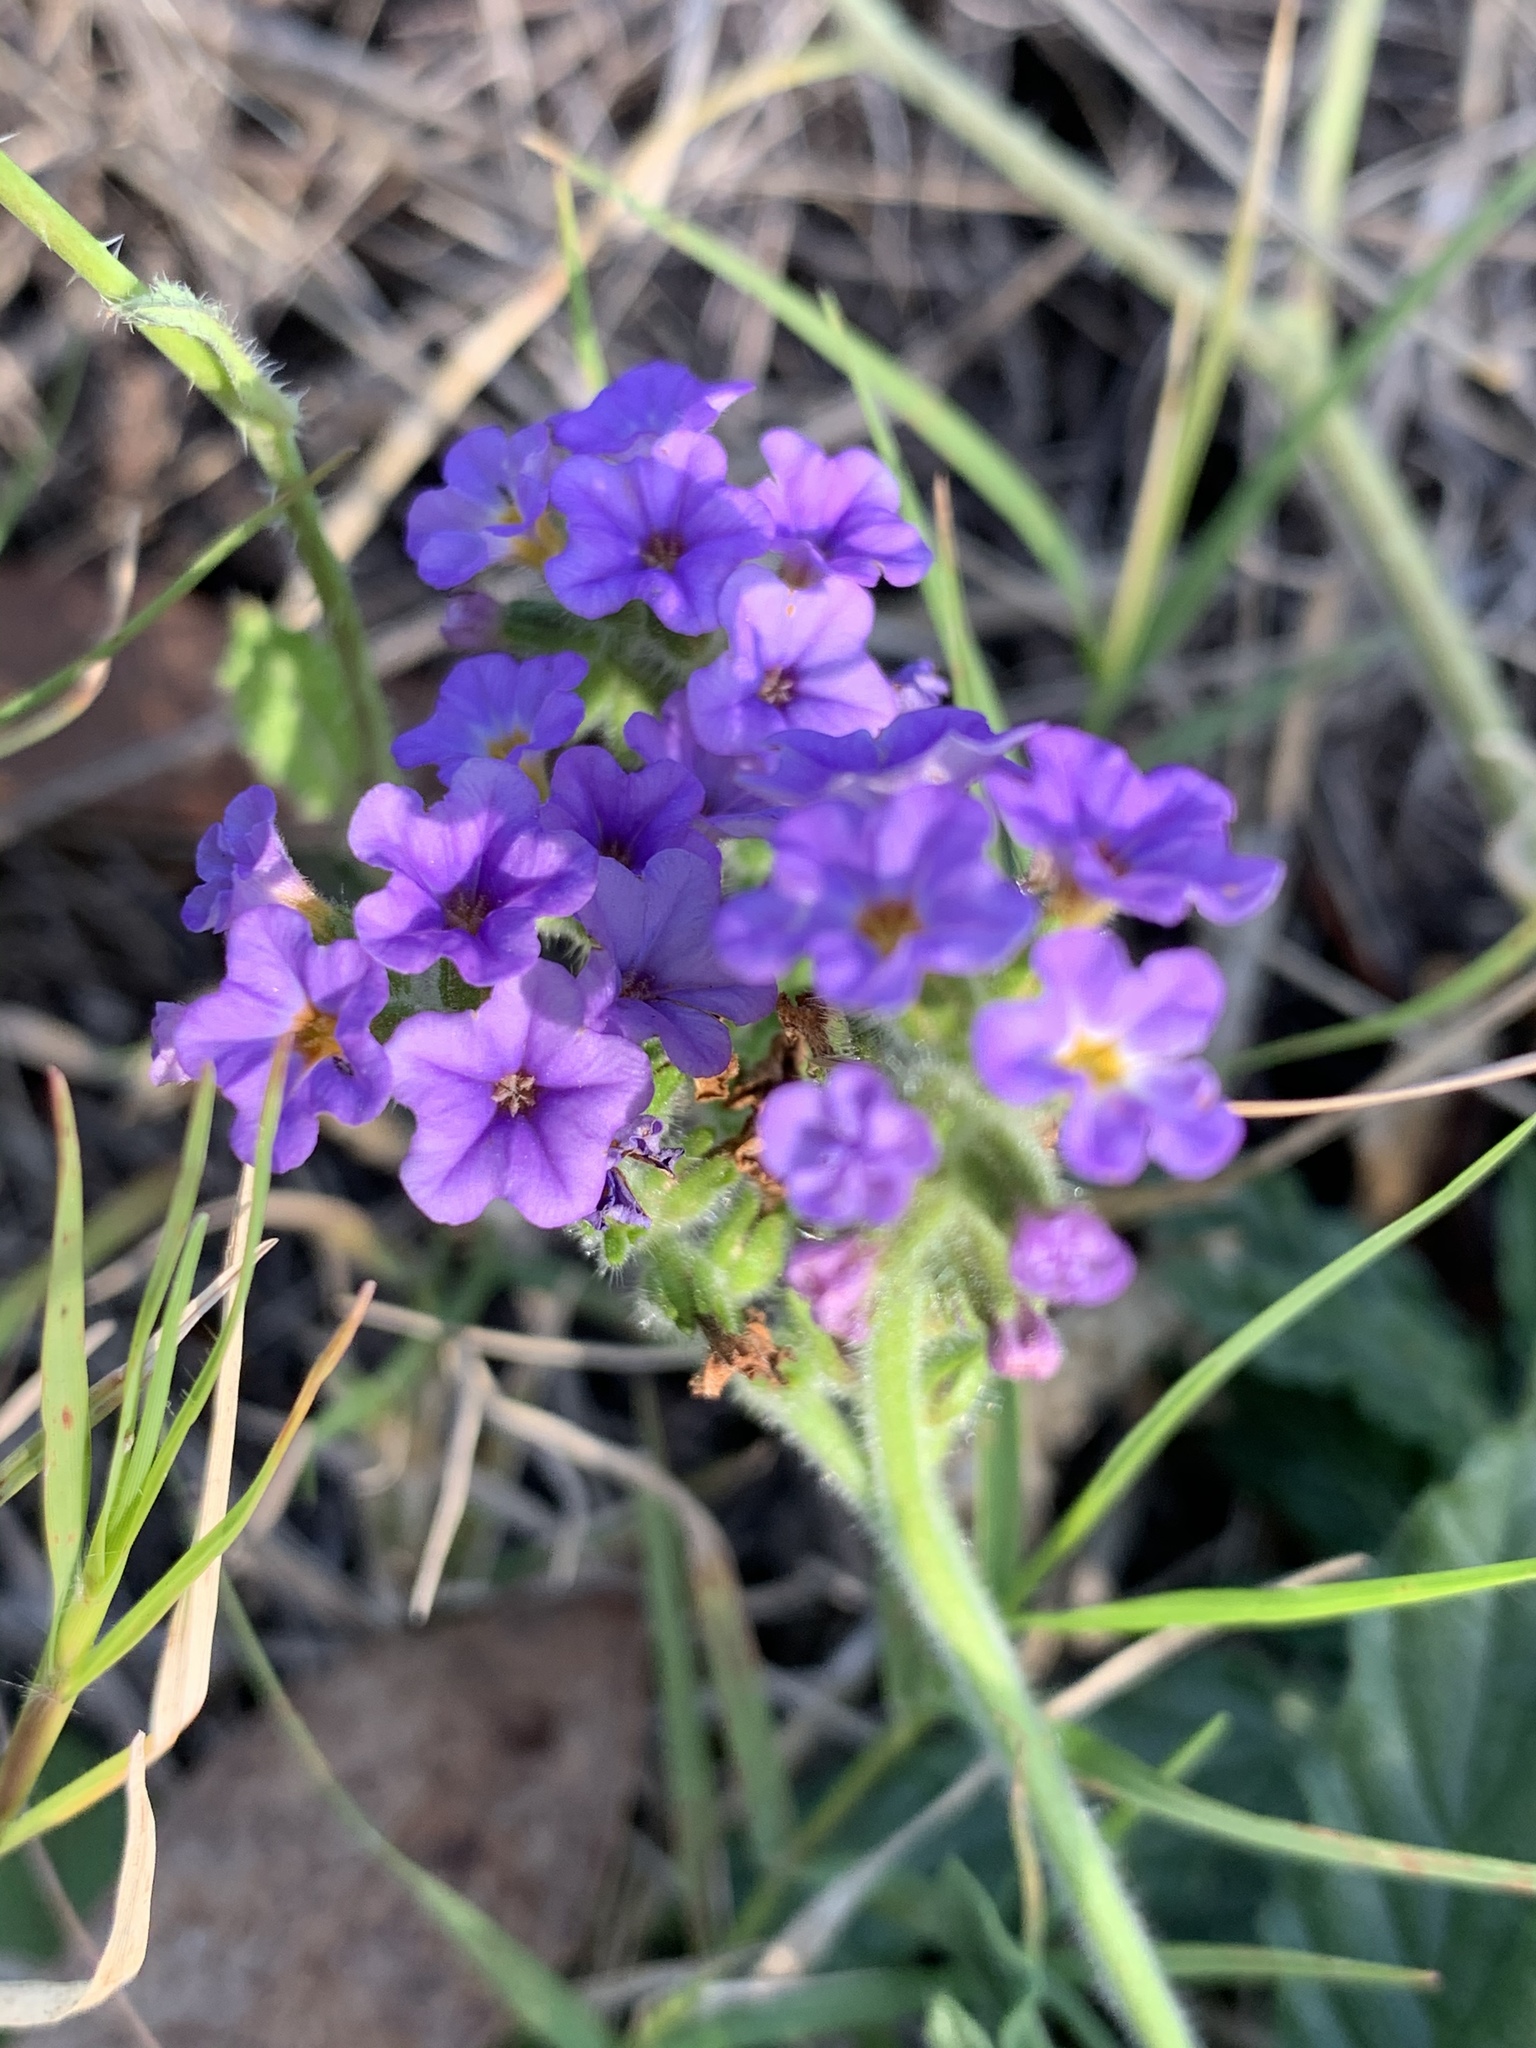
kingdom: Plantae
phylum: Tracheophyta
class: Magnoliopsida
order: Boraginales
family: Heliotropiaceae
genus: Heliotropium
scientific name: Heliotropium amplexicaule
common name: Clasping heliotrope
